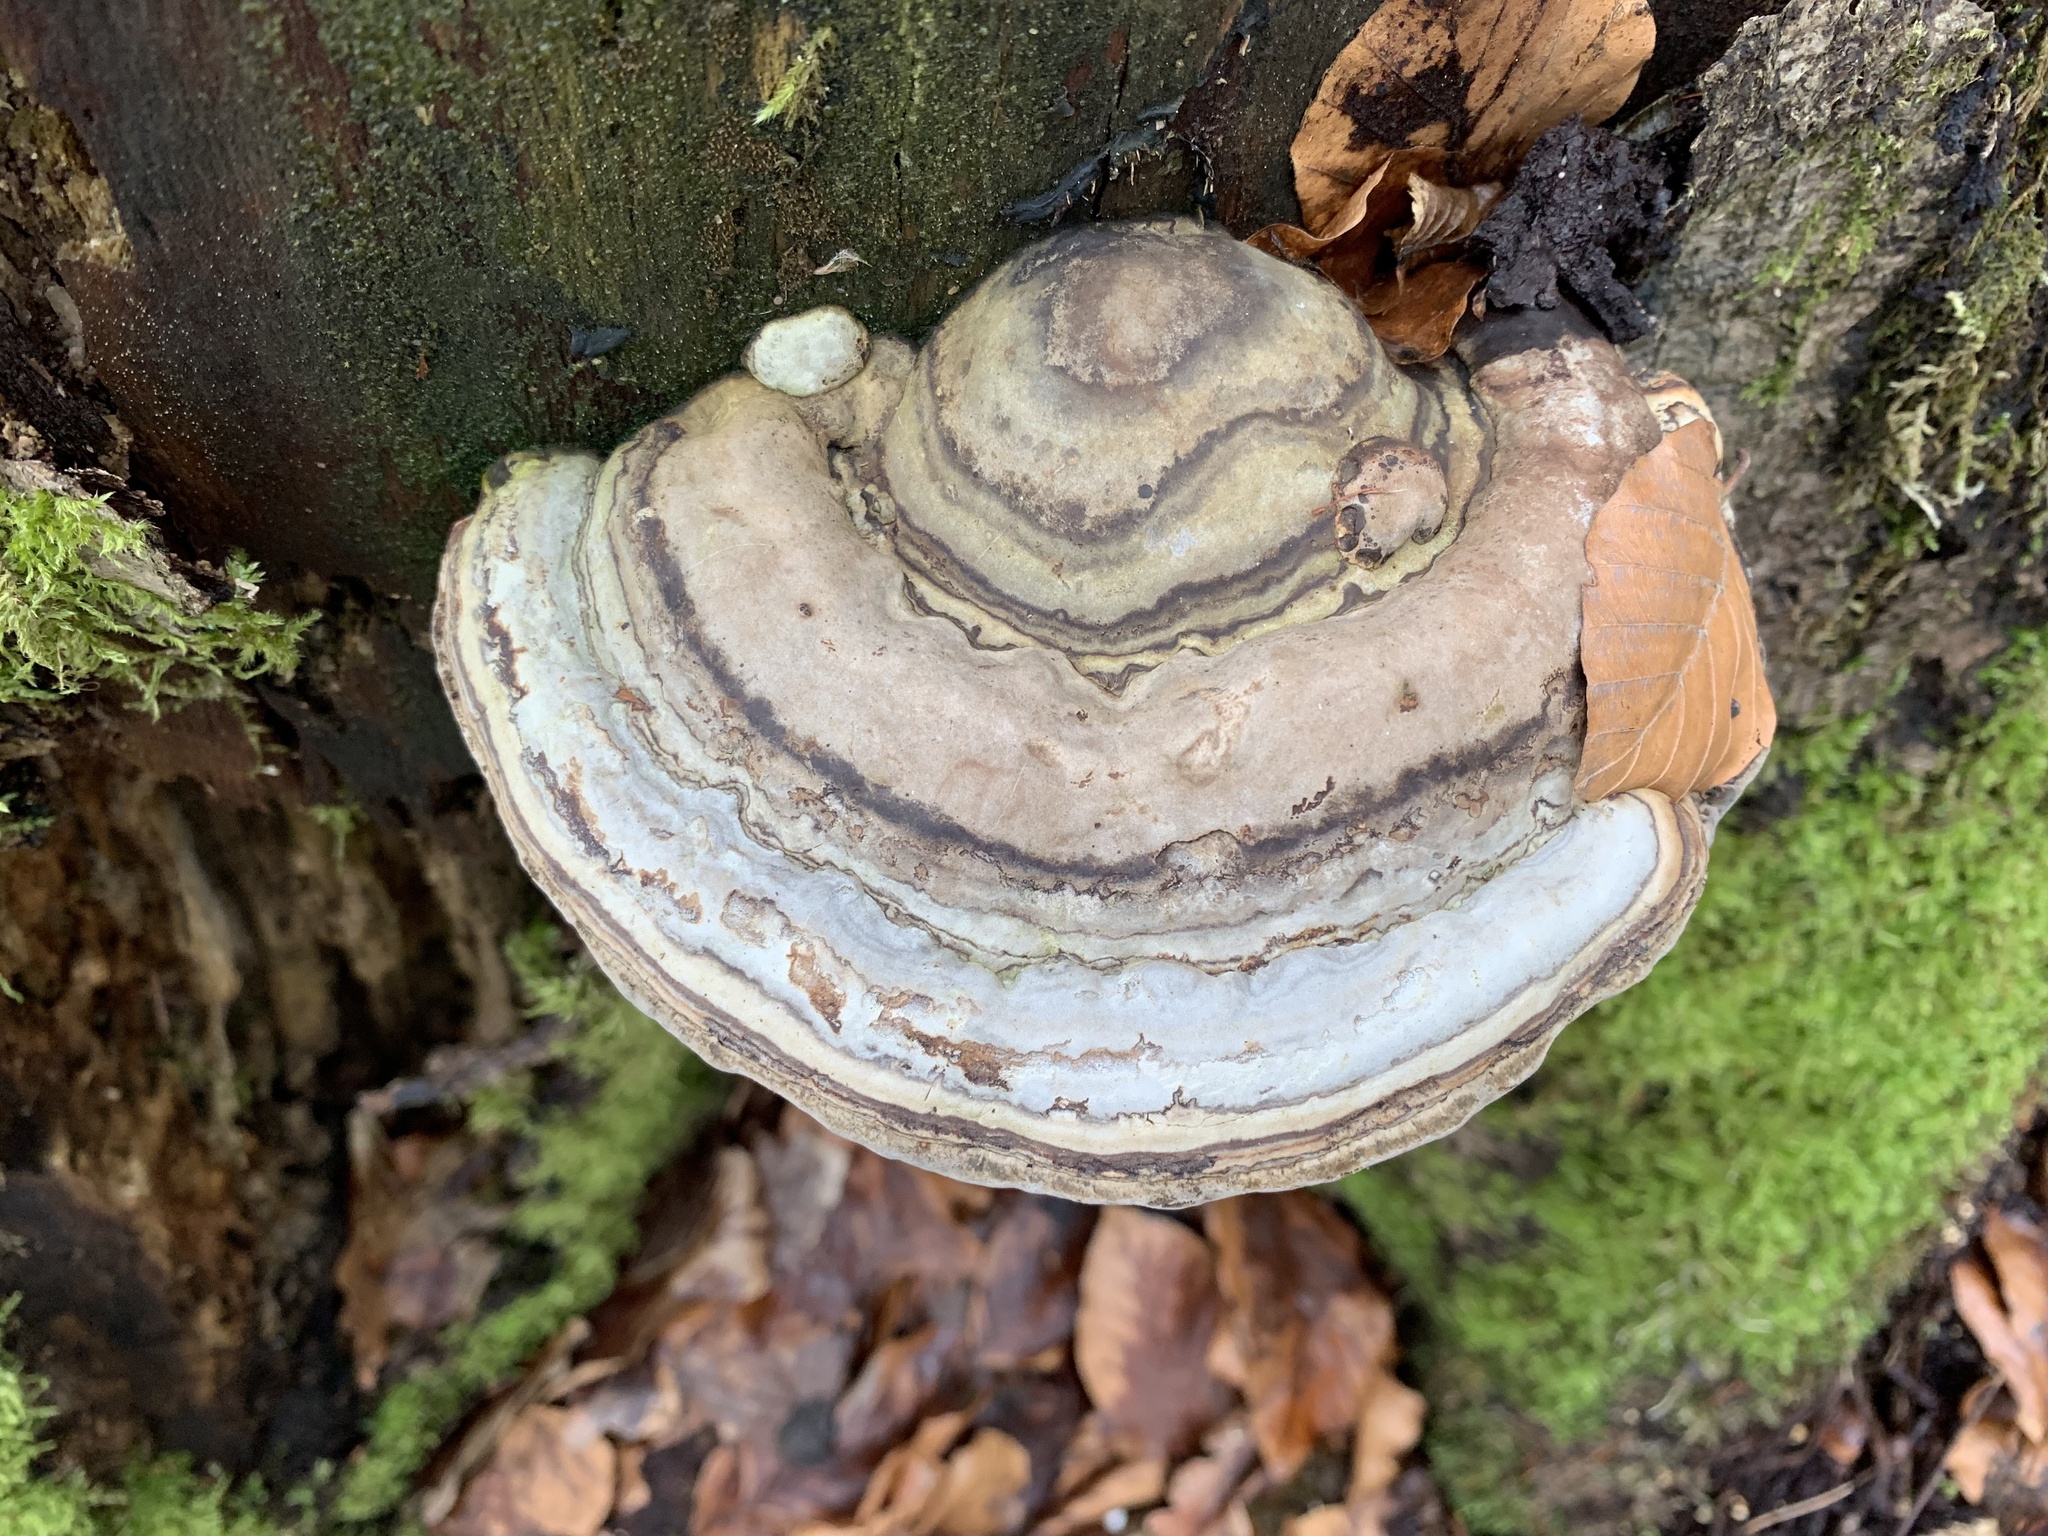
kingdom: Fungi
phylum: Basidiomycota
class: Agaricomycetes
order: Polyporales
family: Polyporaceae
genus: Fomes
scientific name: Fomes fomentarius
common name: Hoof fungus
